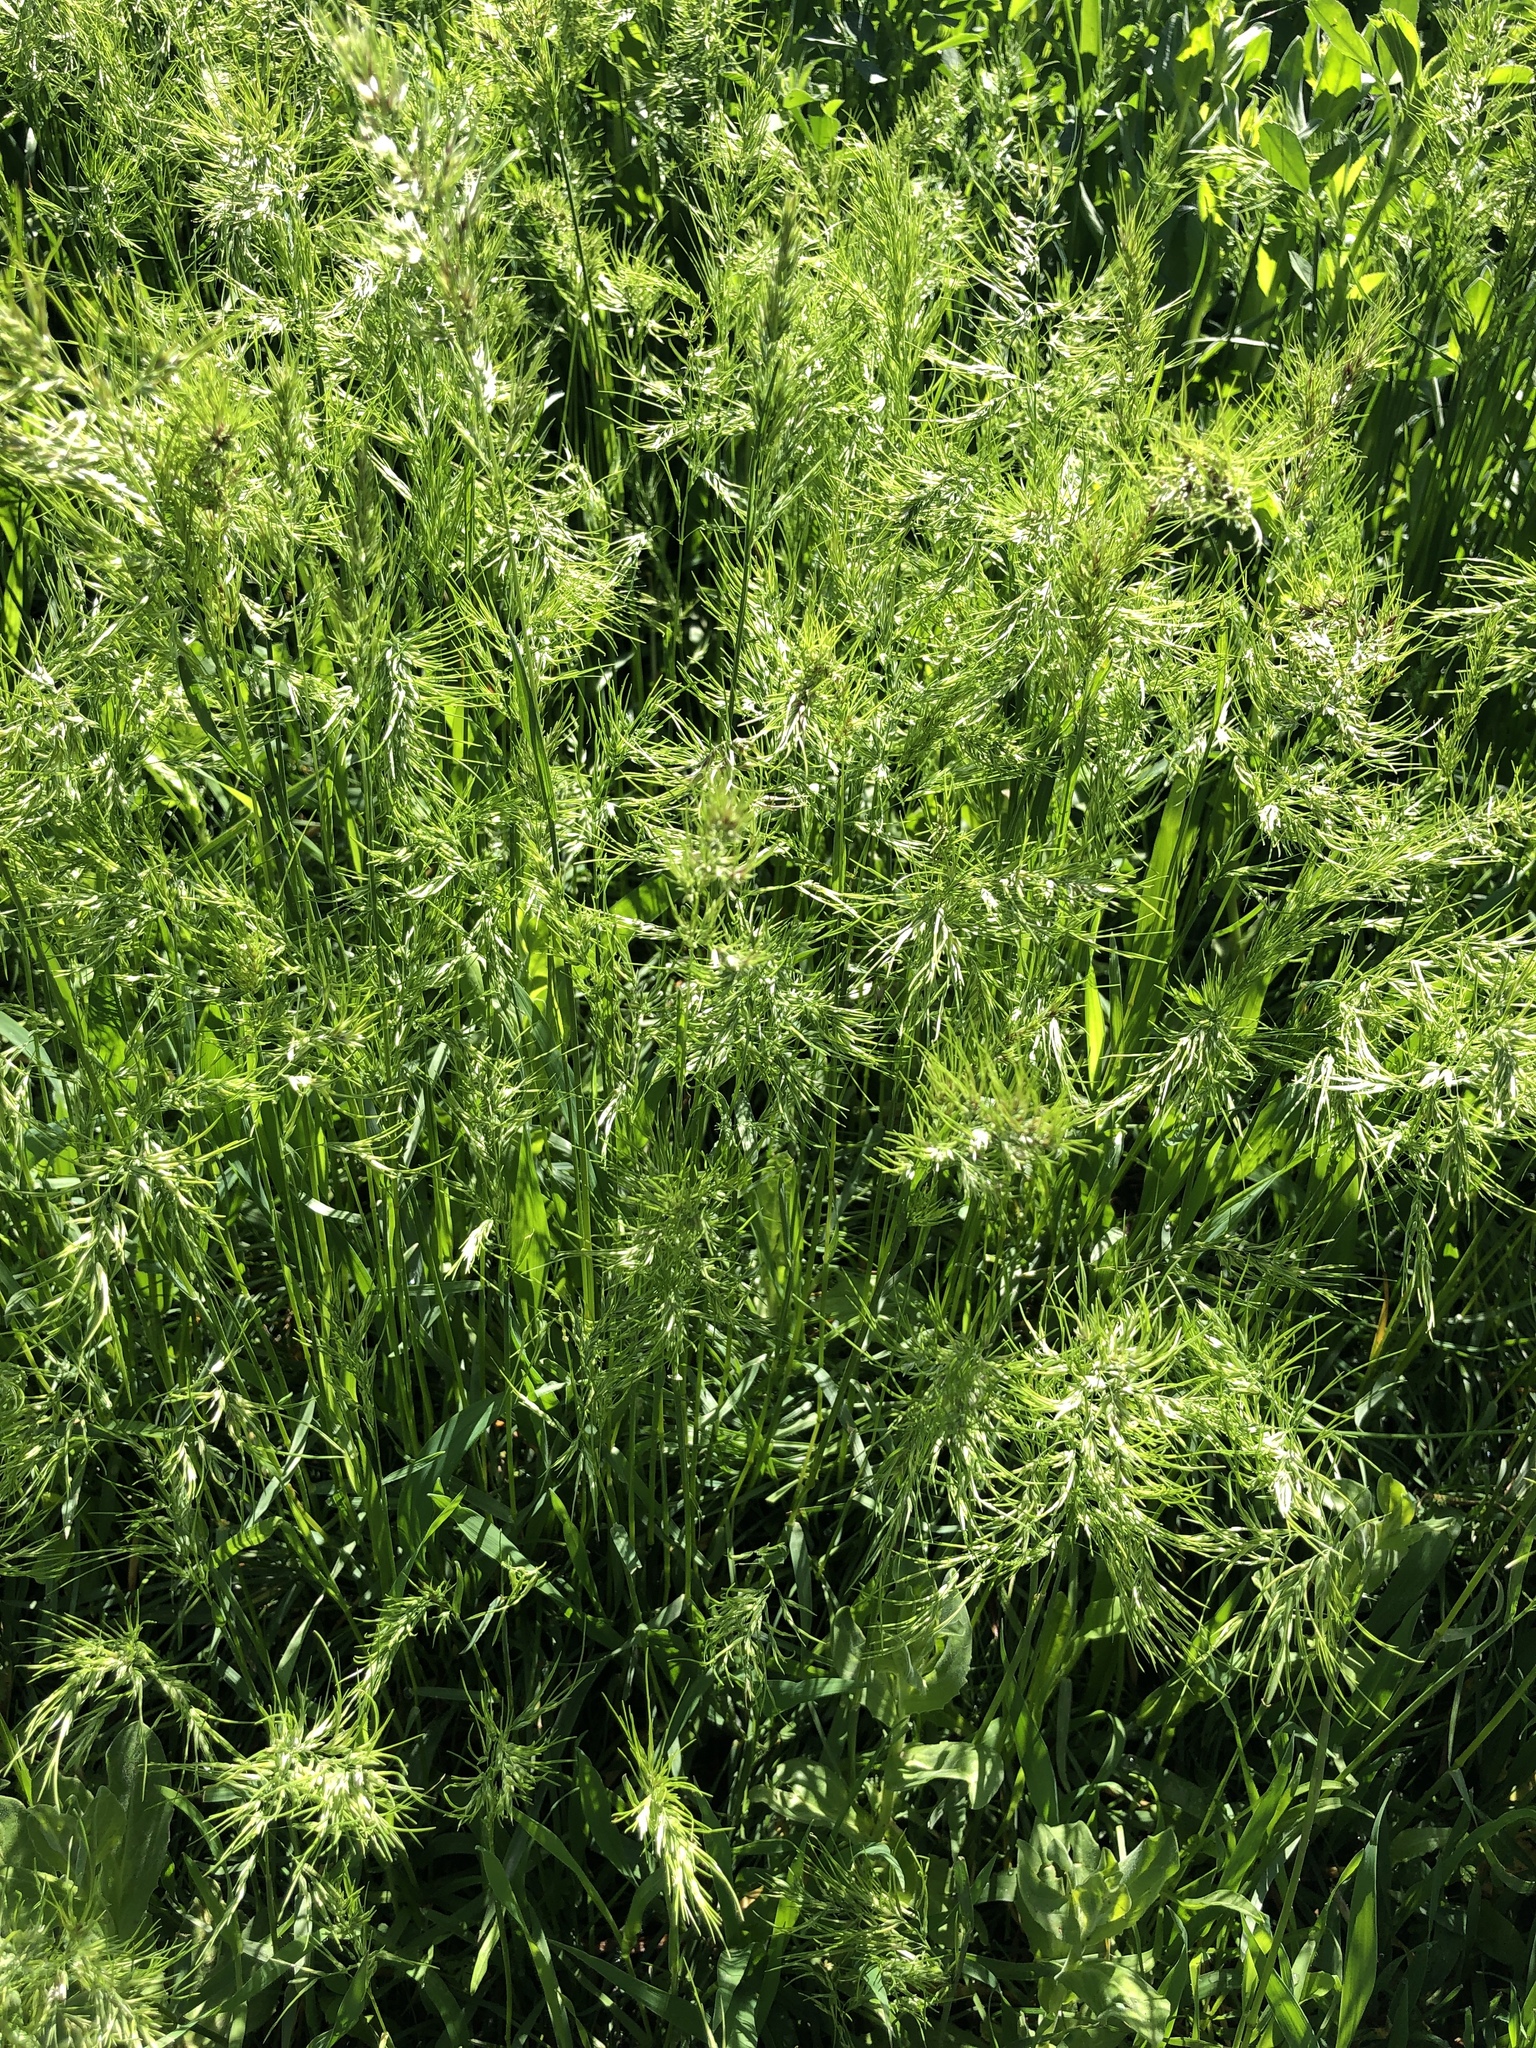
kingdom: Plantae
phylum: Tracheophyta
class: Liliopsida
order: Poales
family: Poaceae
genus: Poa
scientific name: Poa bulbosa
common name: Bulbous bluegrass
